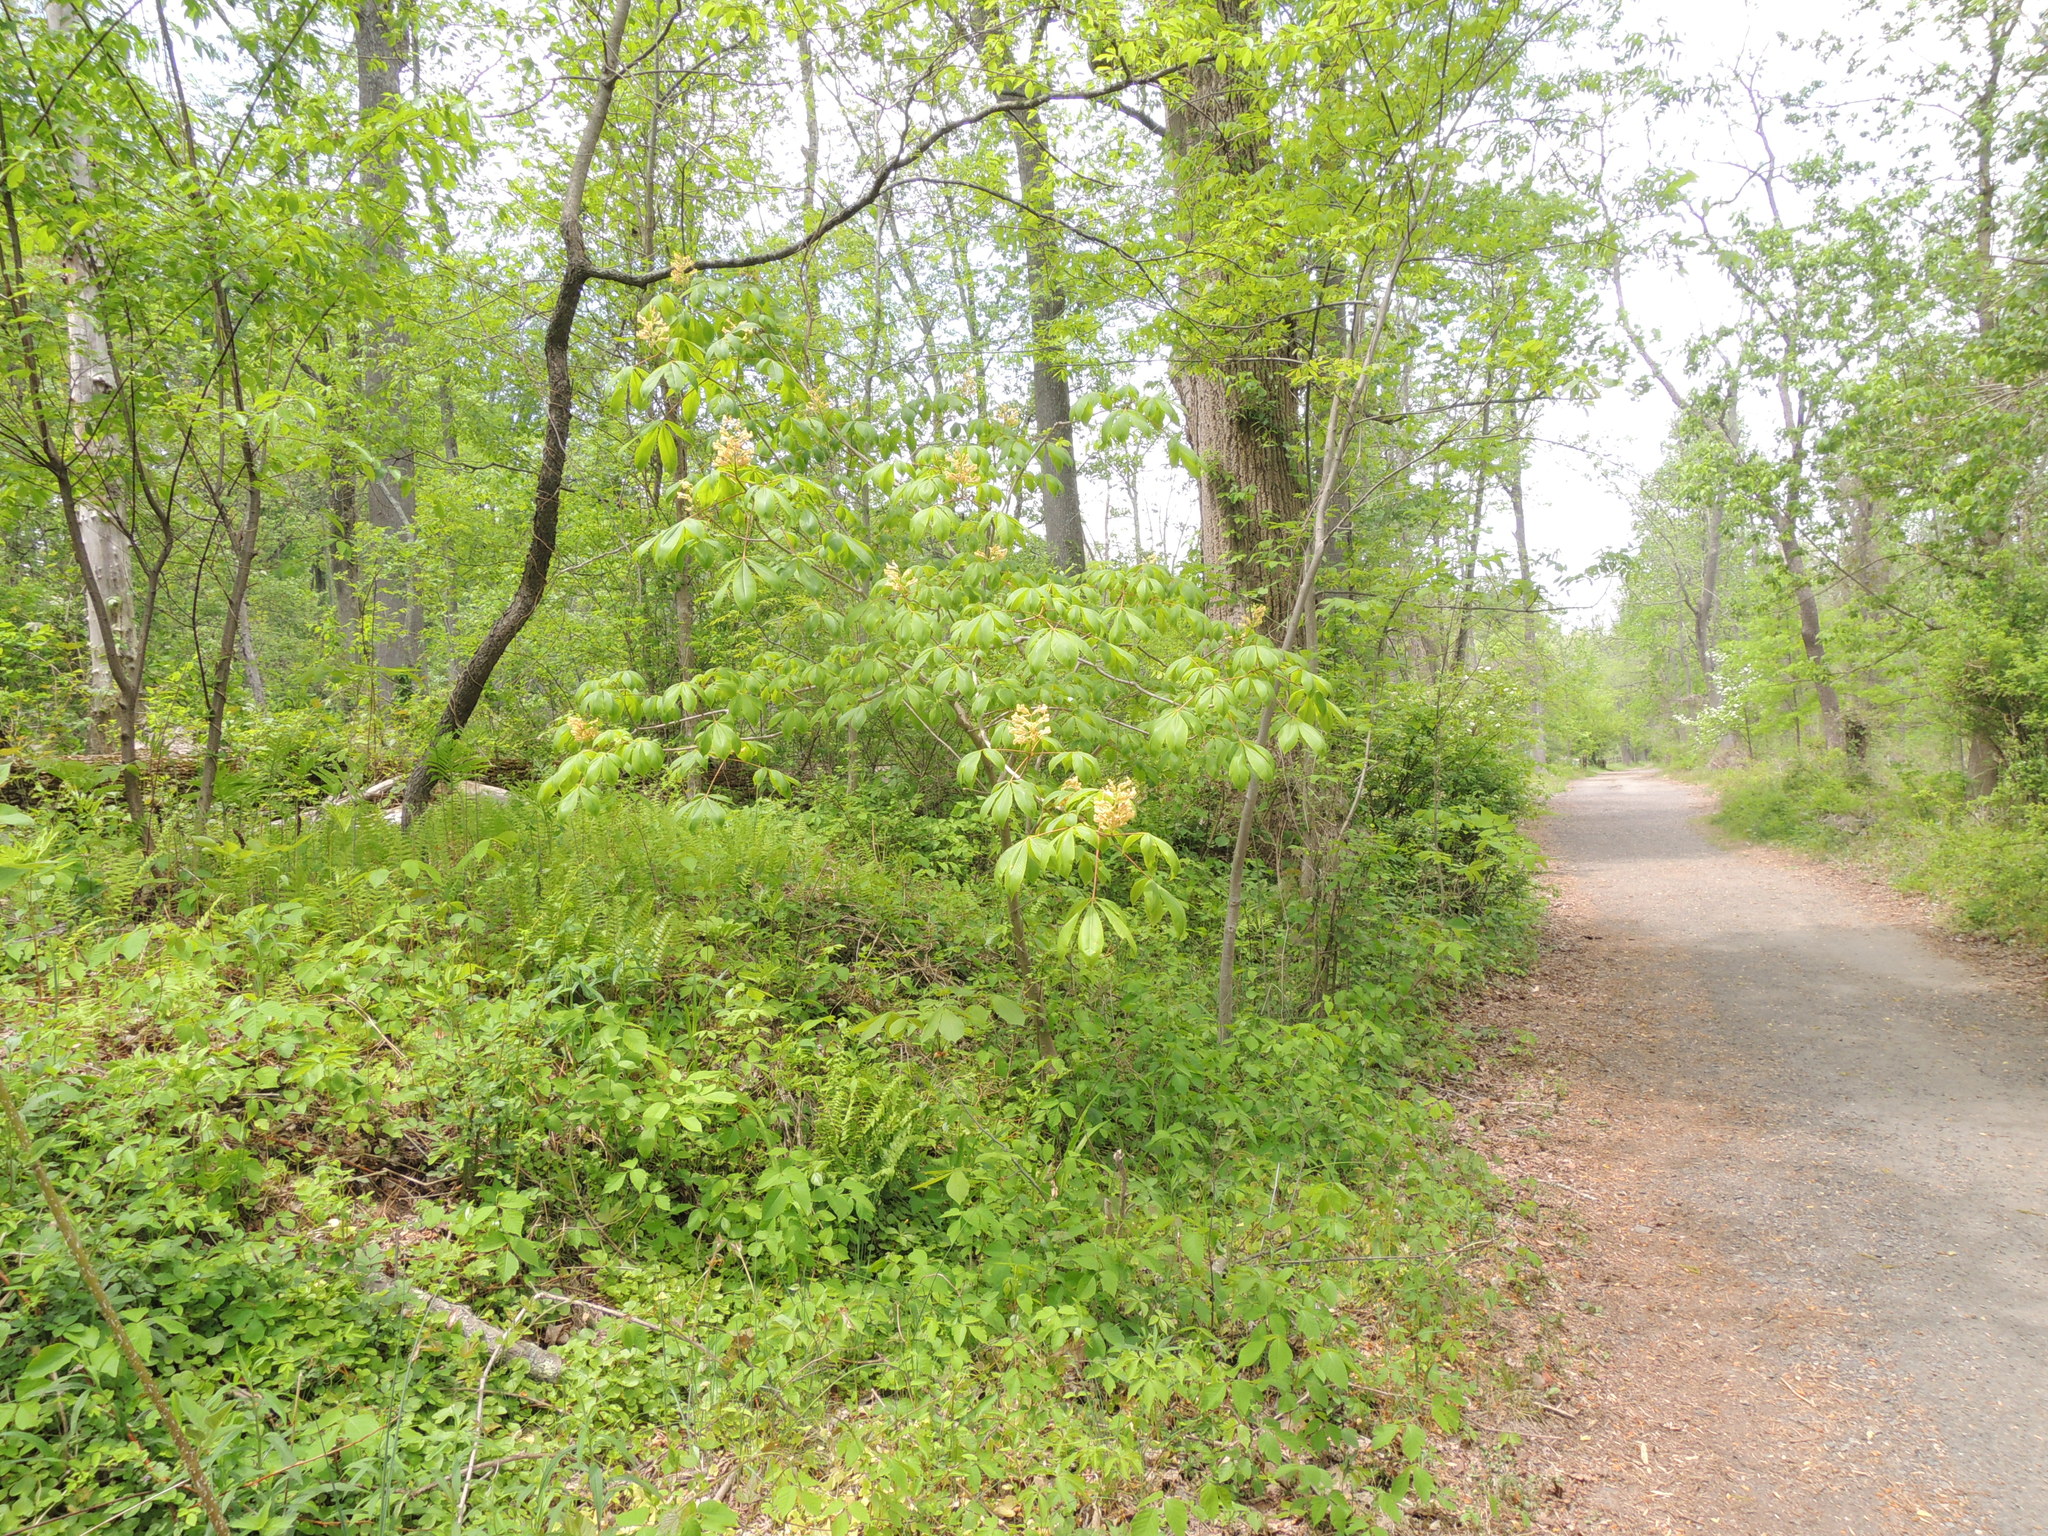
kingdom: Plantae
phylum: Tracheophyta
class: Magnoliopsida
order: Sapindales
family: Sapindaceae
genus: Aesculus
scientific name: Aesculus glabra
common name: Ohio buckeye
